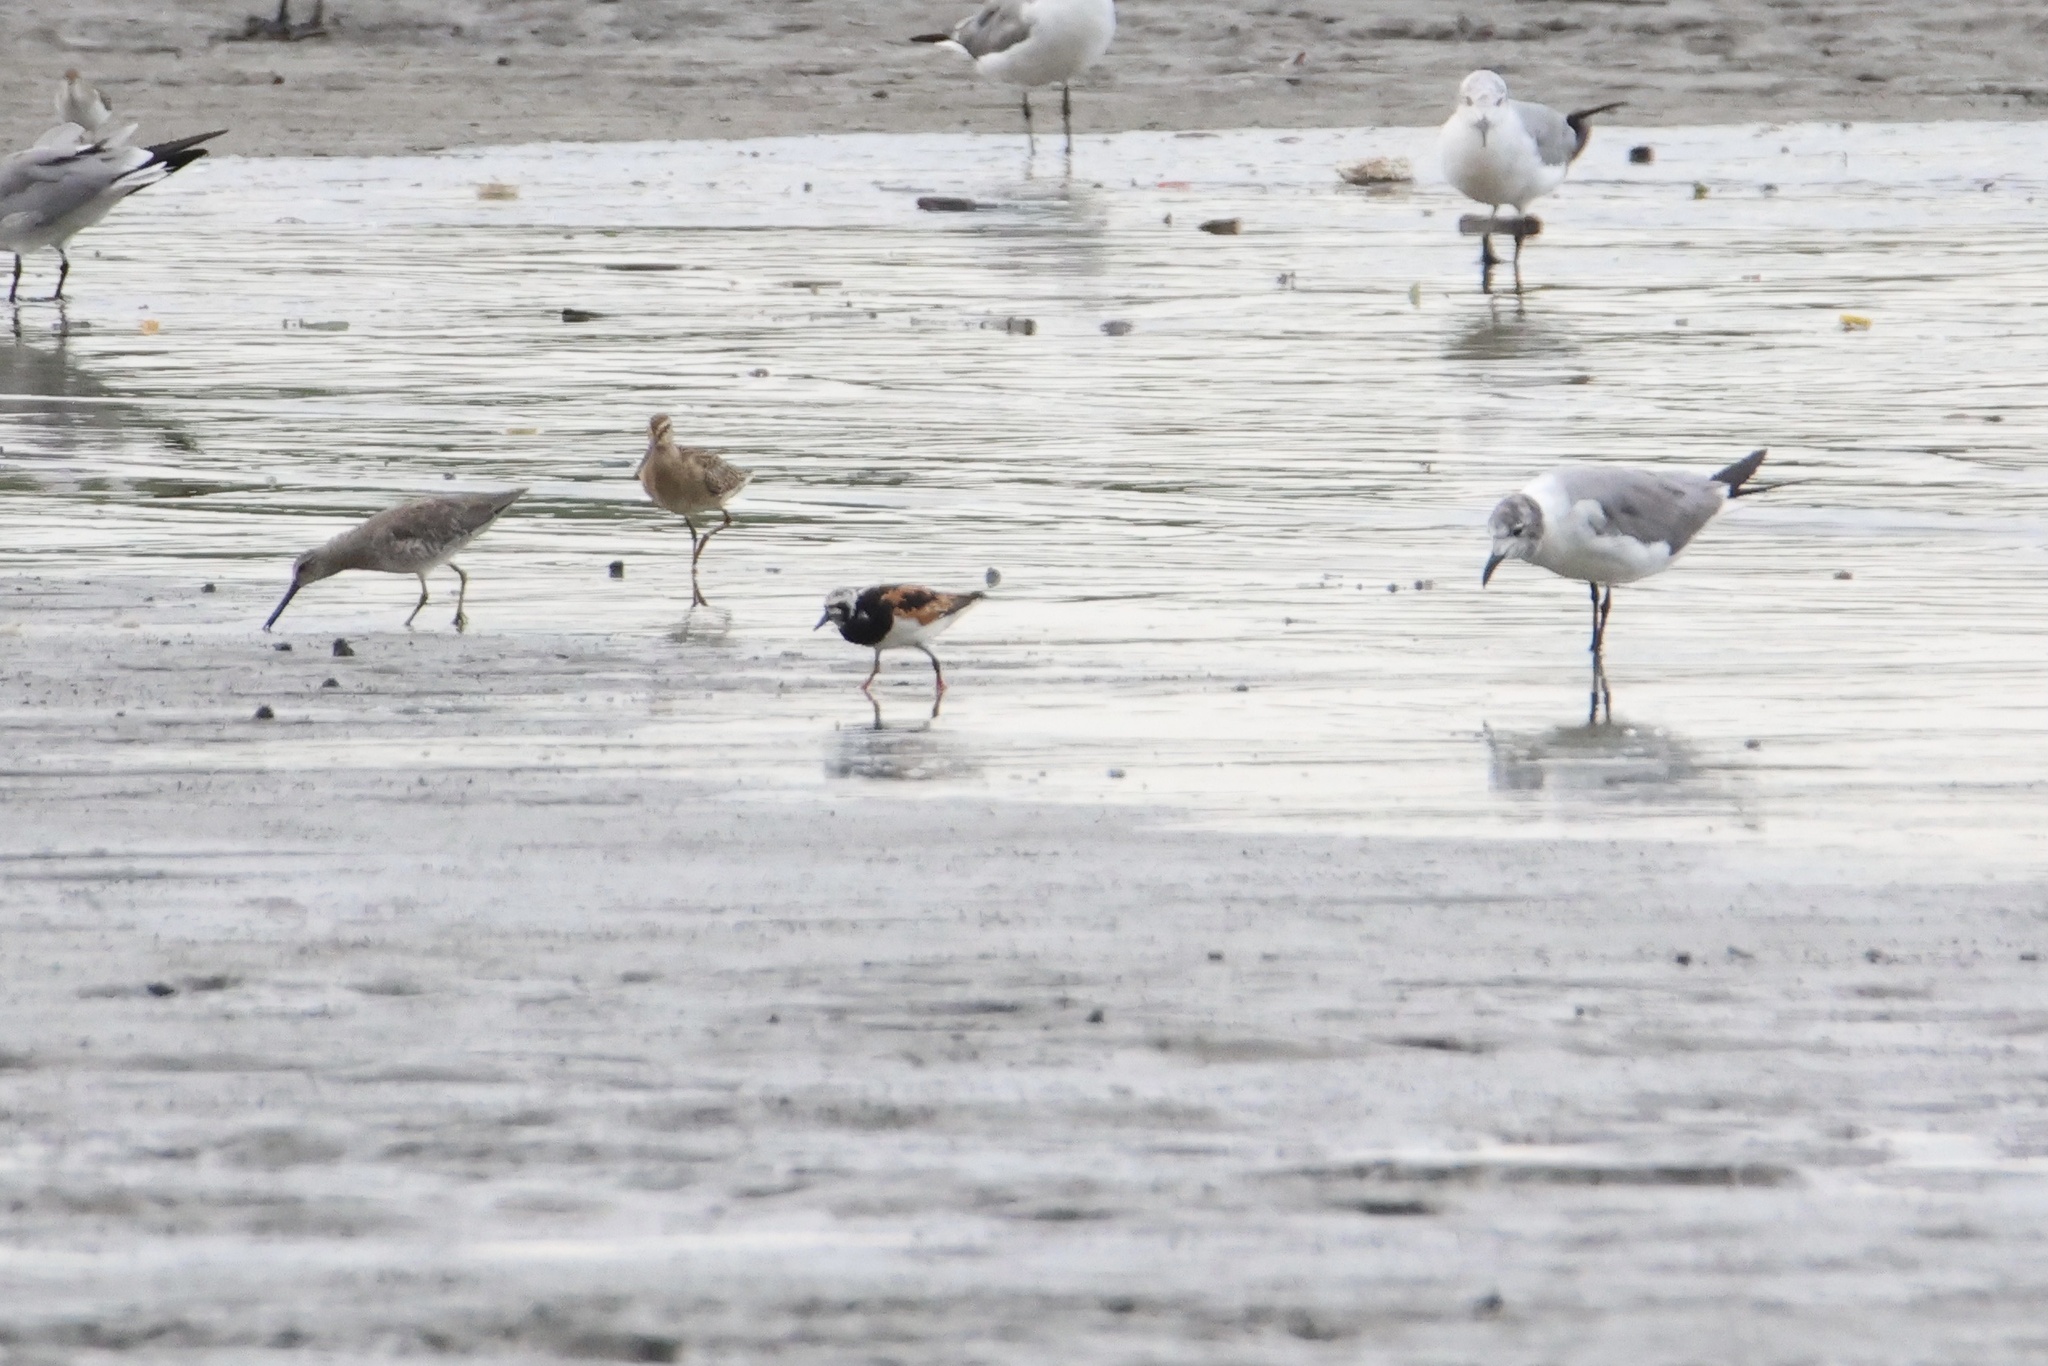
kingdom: Animalia
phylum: Chordata
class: Aves
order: Charadriiformes
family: Scolopacidae
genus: Arenaria
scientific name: Arenaria interpres
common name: Ruddy turnstone
